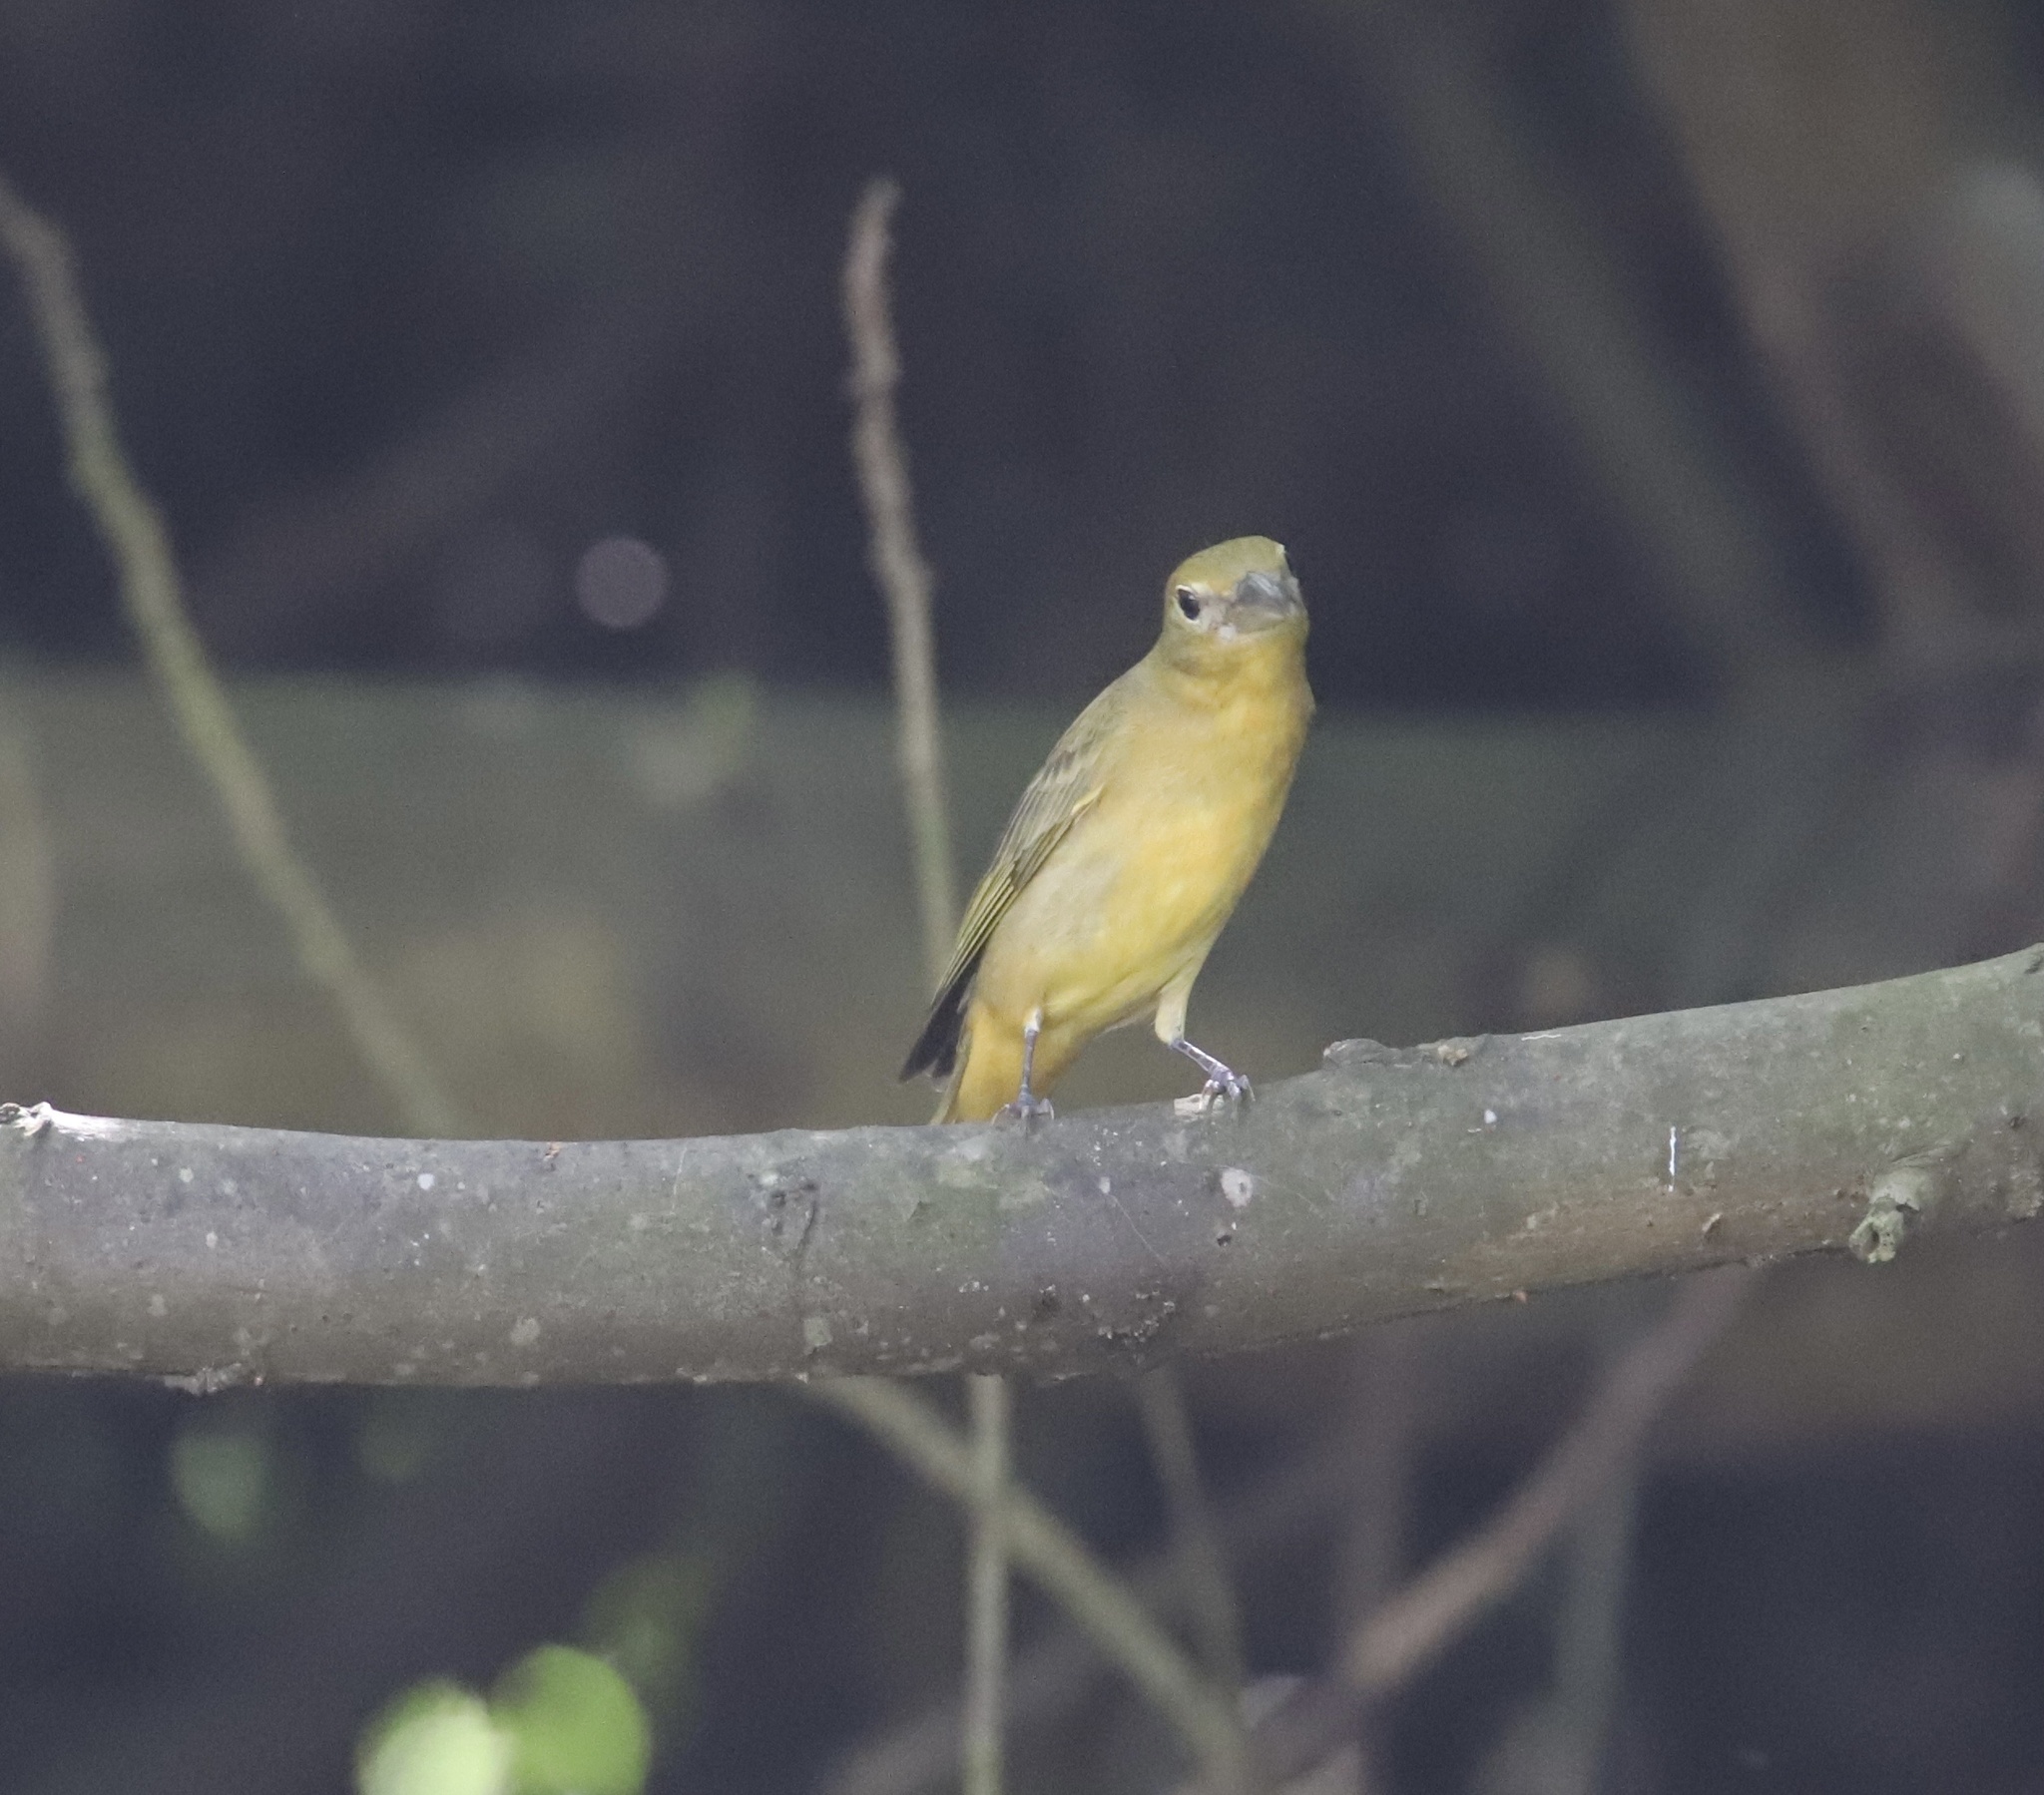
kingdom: Animalia
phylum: Chordata
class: Aves
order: Passeriformes
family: Cardinalidae
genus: Piranga
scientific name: Piranga rubra
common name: Summer tanager
